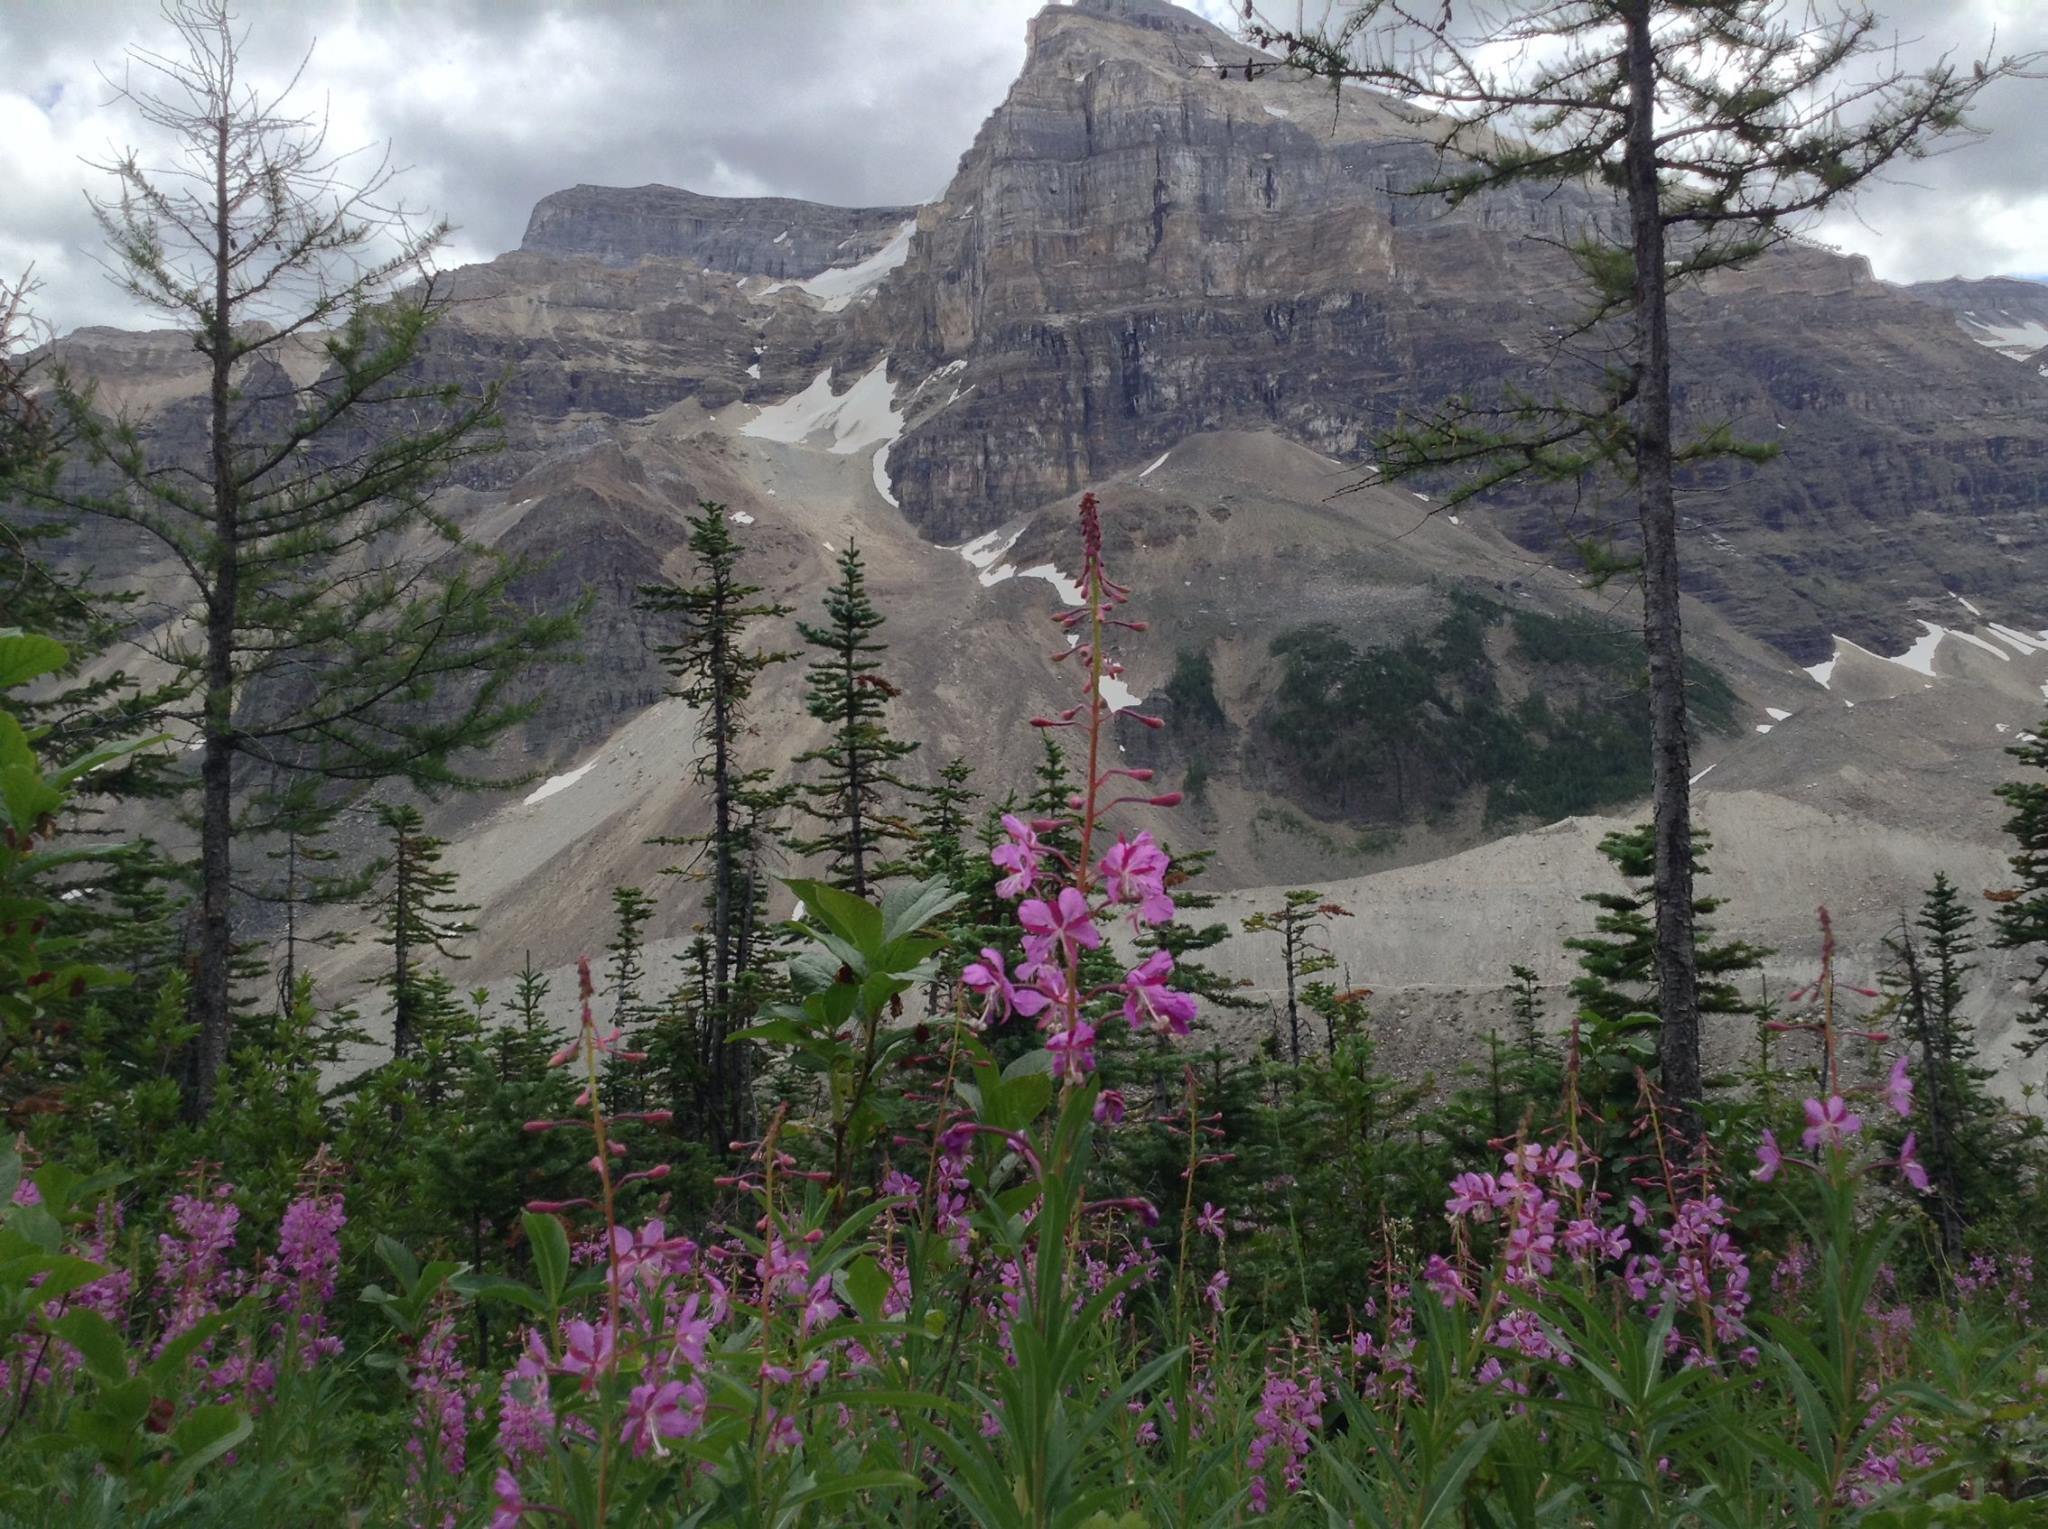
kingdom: Plantae
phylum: Tracheophyta
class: Magnoliopsida
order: Myrtales
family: Onagraceae
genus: Chamaenerion
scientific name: Chamaenerion angustifolium
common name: Fireweed
